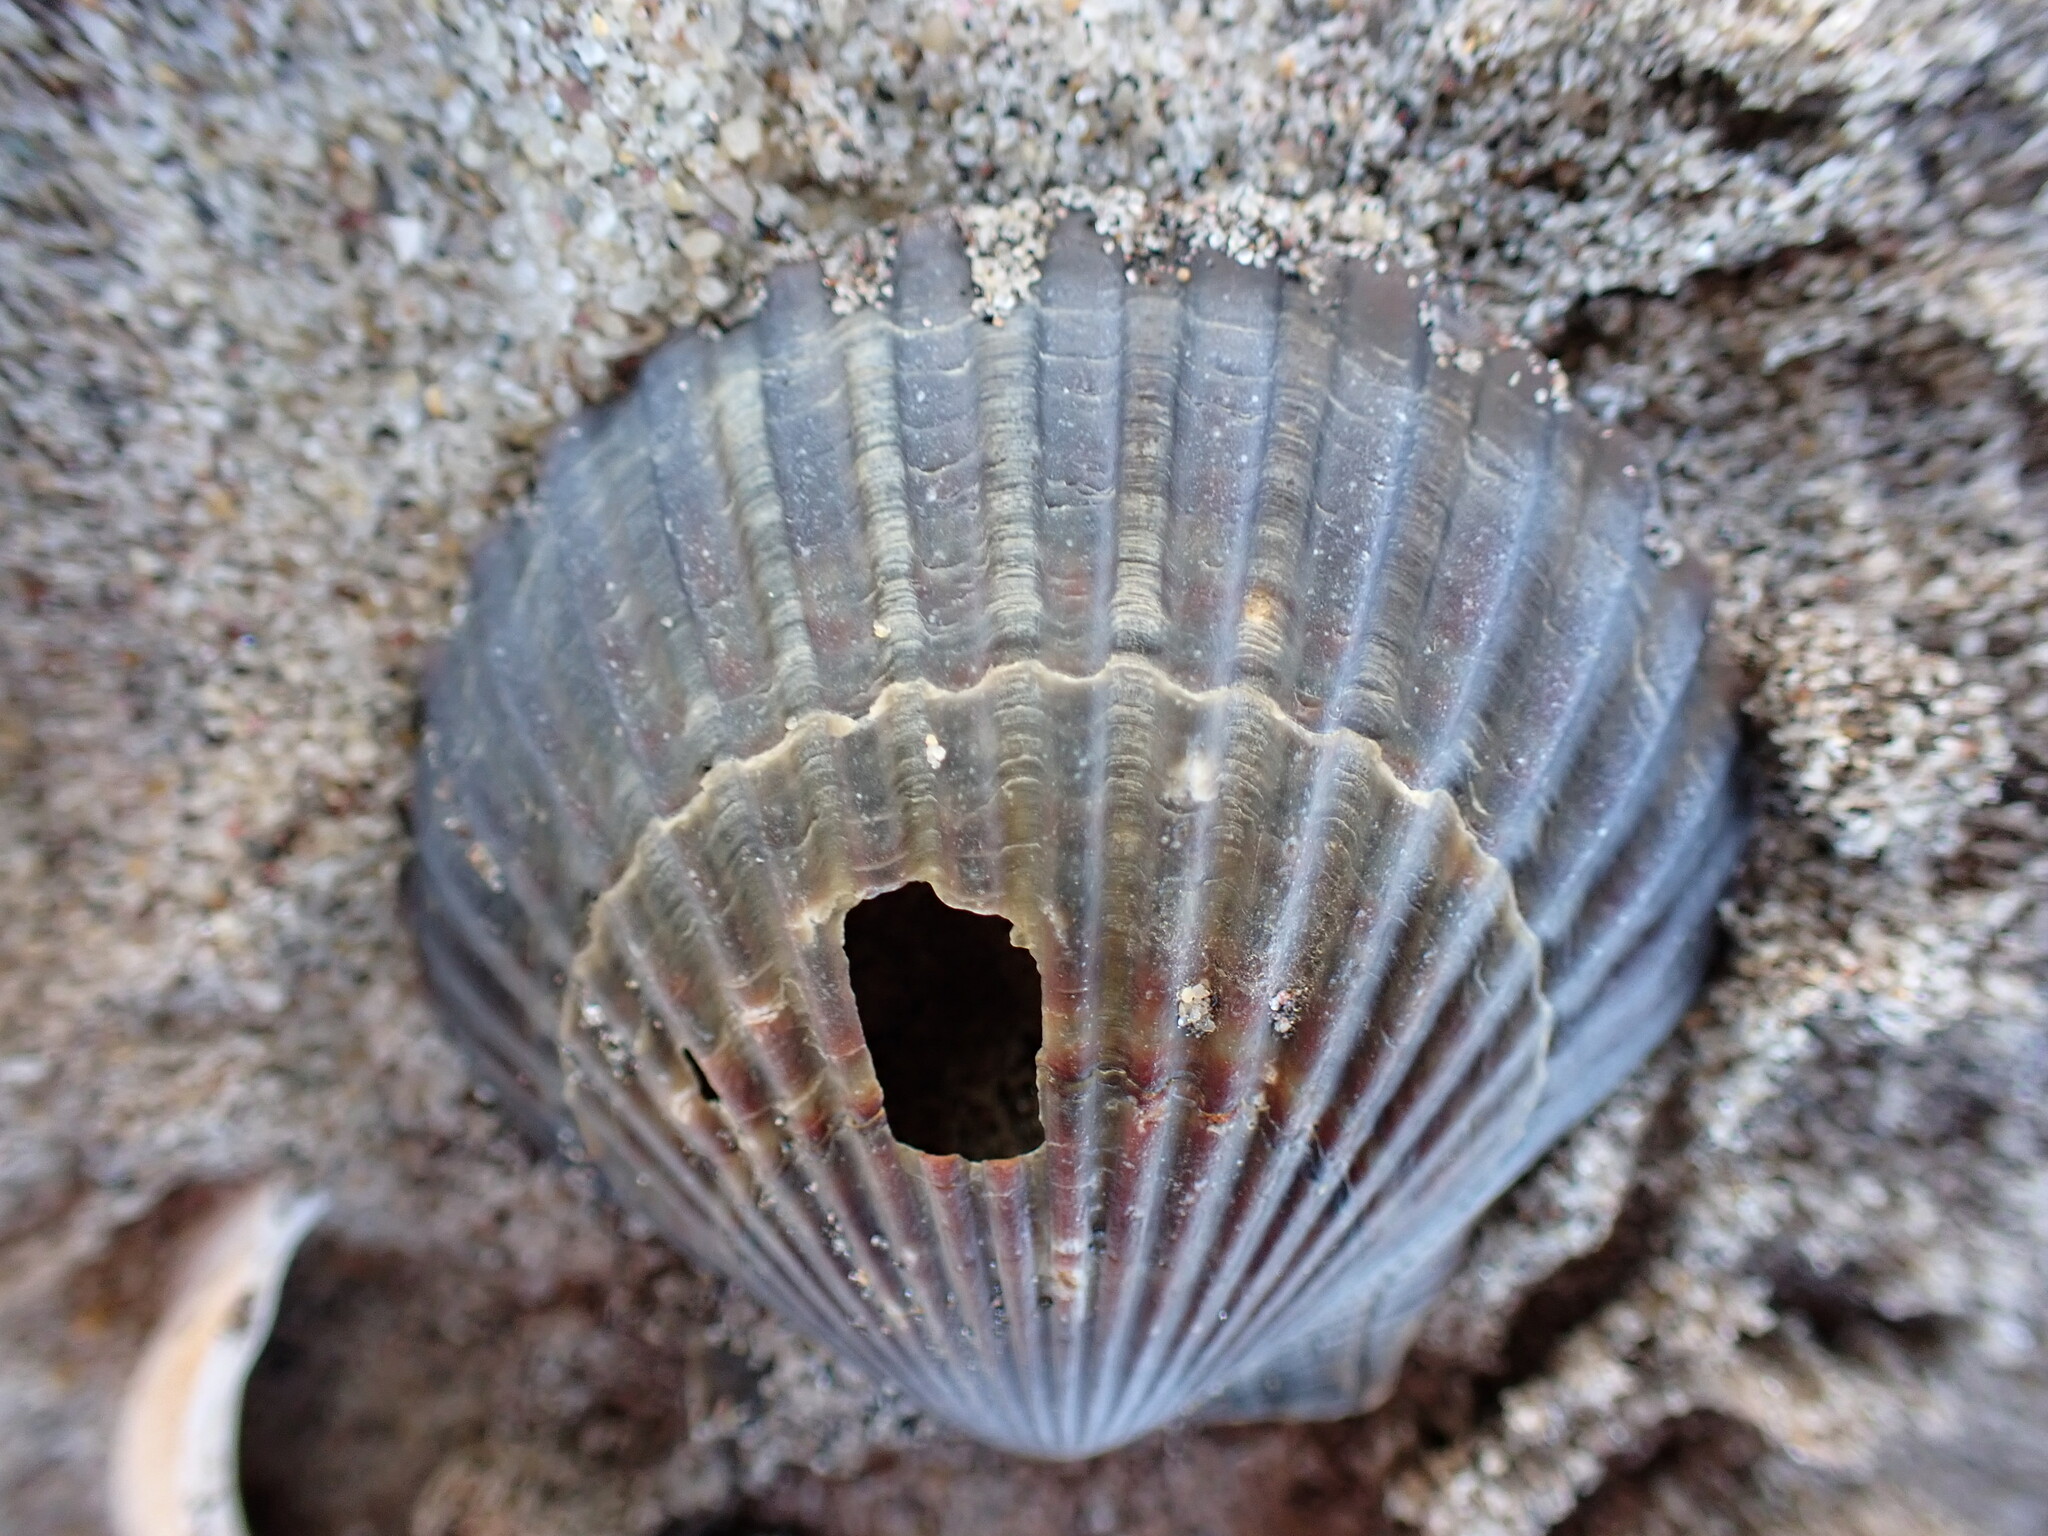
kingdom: Animalia
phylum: Mollusca
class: Bivalvia
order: Pectinida
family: Pectinidae
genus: Argopecten
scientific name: Argopecten irradians
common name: Atlantic bay scallop
